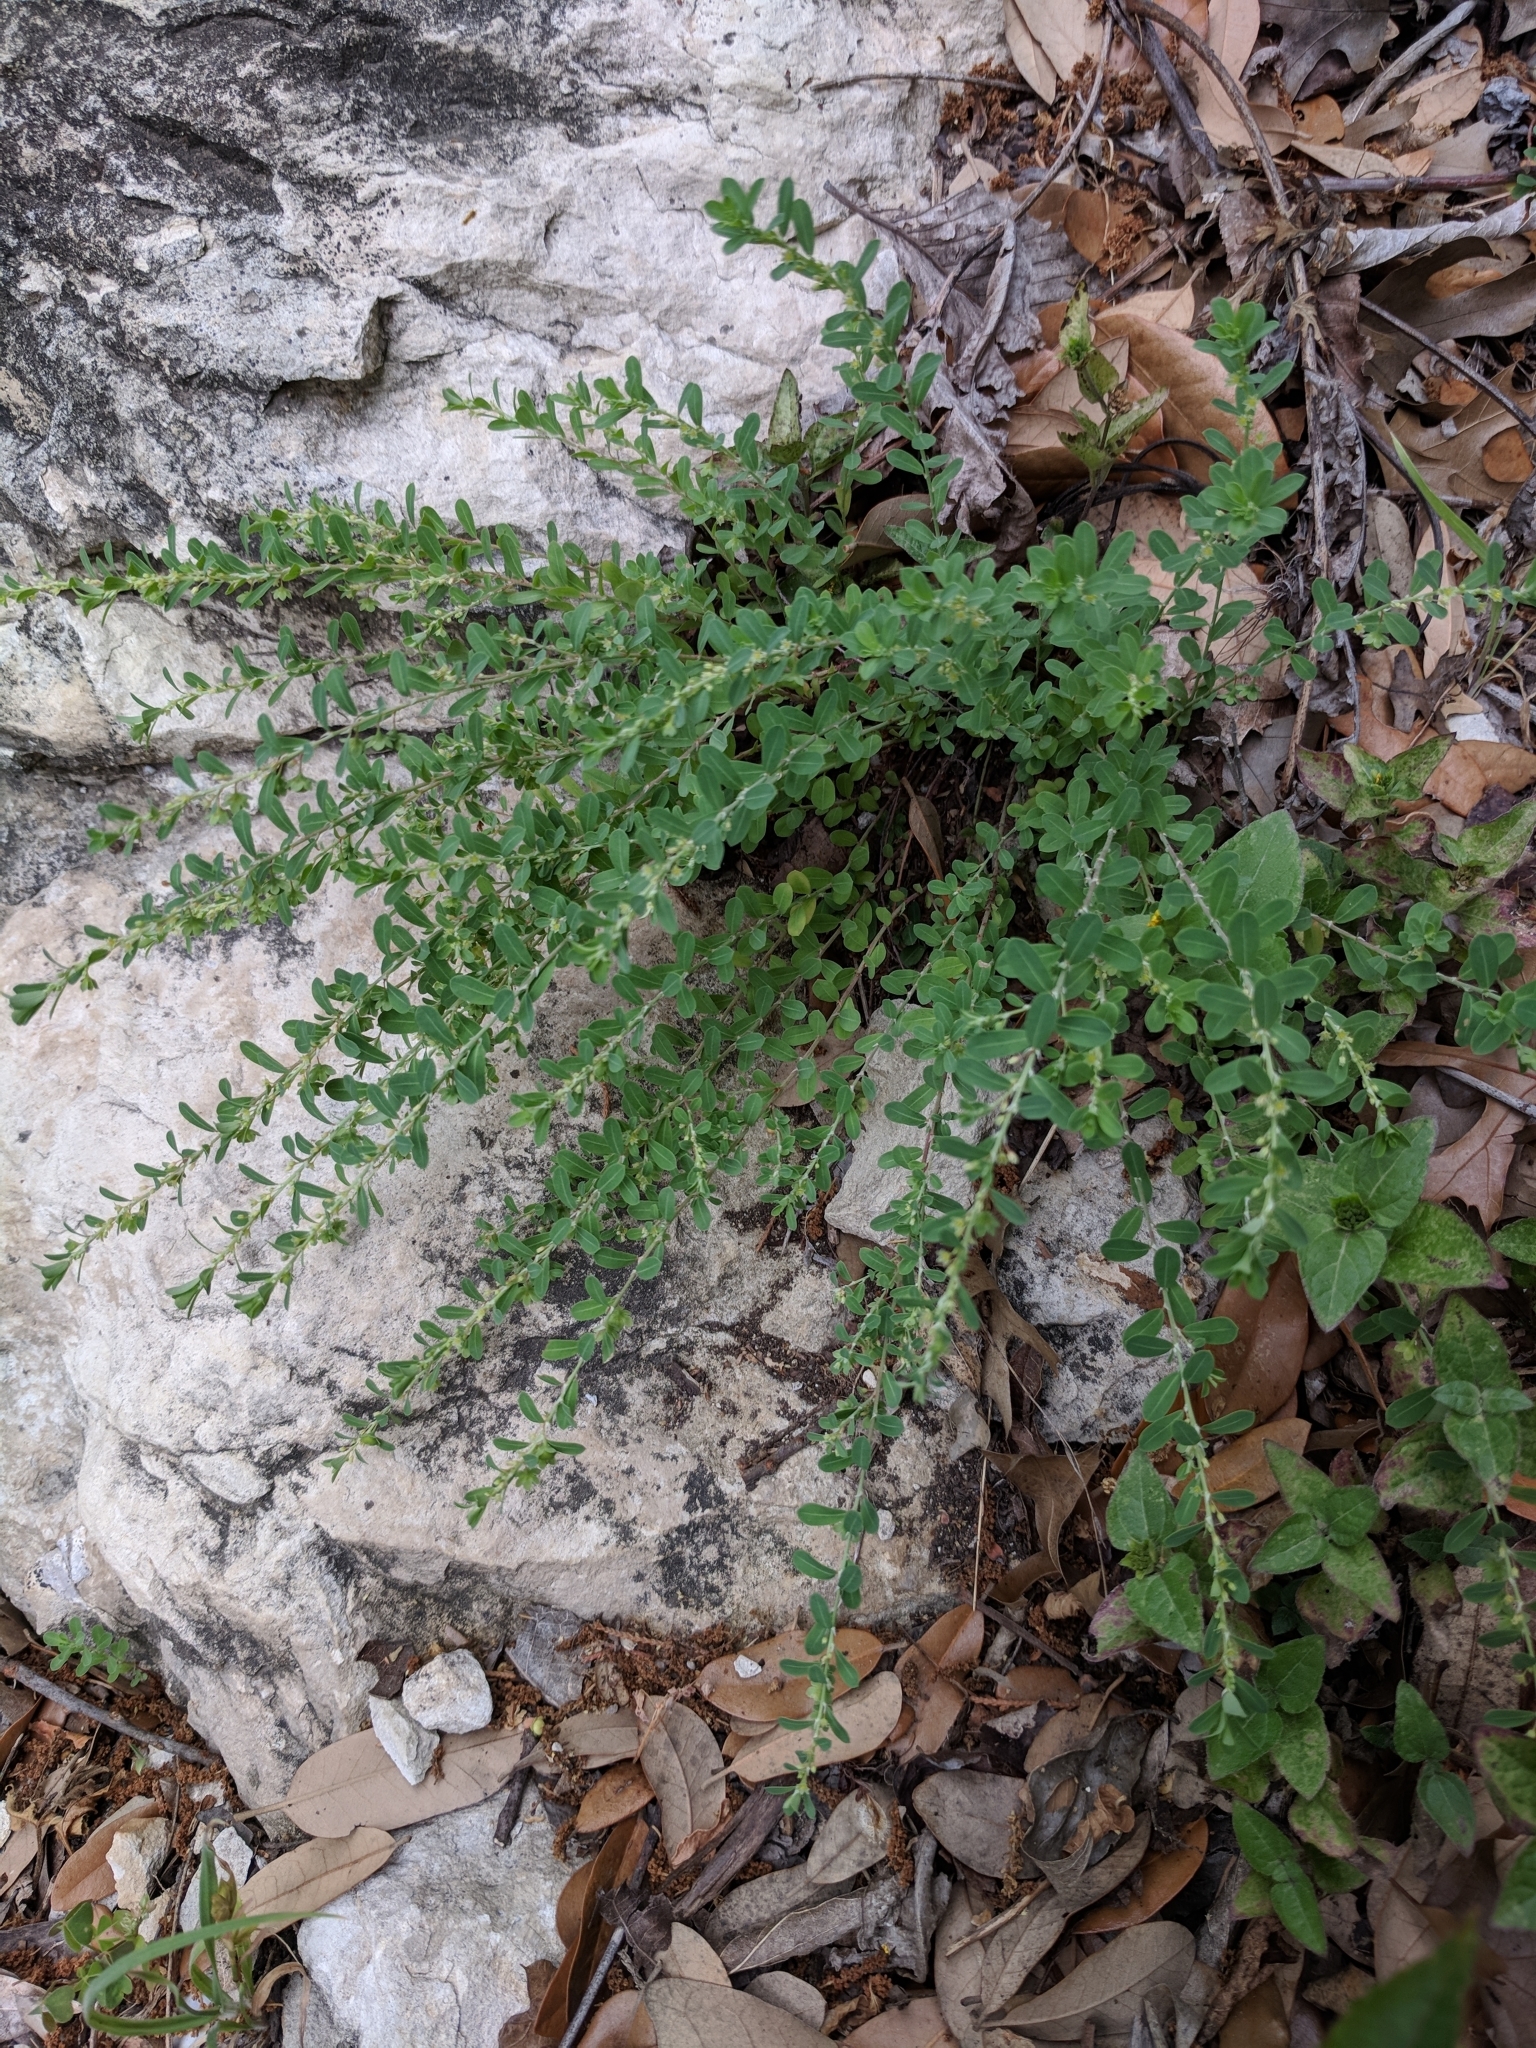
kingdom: Plantae
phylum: Tracheophyta
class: Magnoliopsida
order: Malpighiales
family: Phyllanthaceae
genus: Phyllanthus
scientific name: Phyllanthus polygonoides
